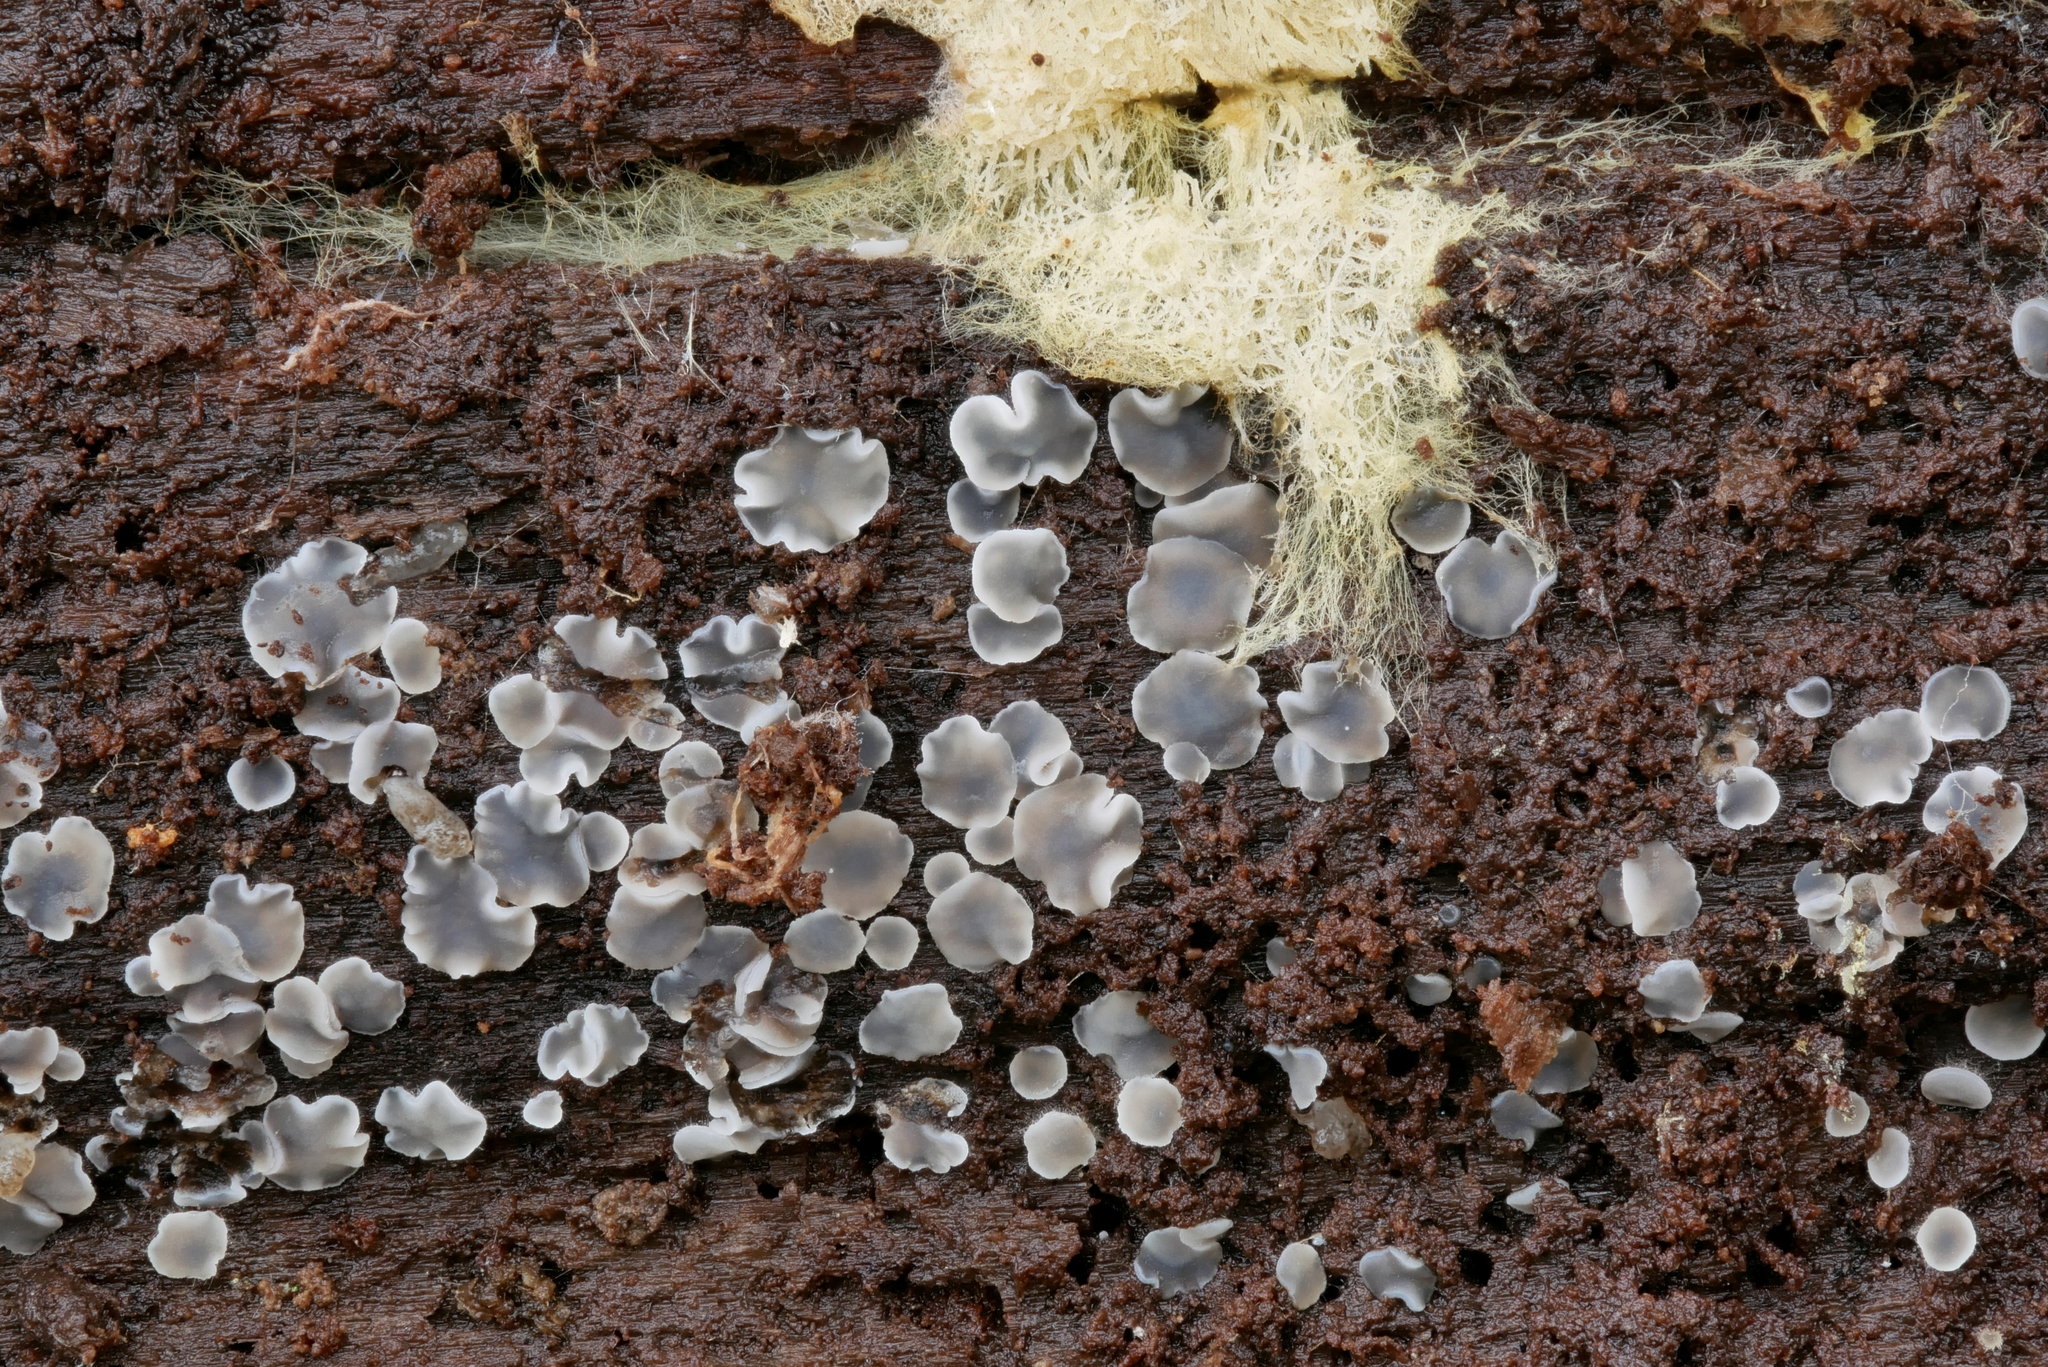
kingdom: Fungi
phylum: Ascomycota
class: Leotiomycetes
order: Helotiales
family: Mollisiaceae
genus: Mollisia
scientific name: Mollisia cinereo-olivascens
